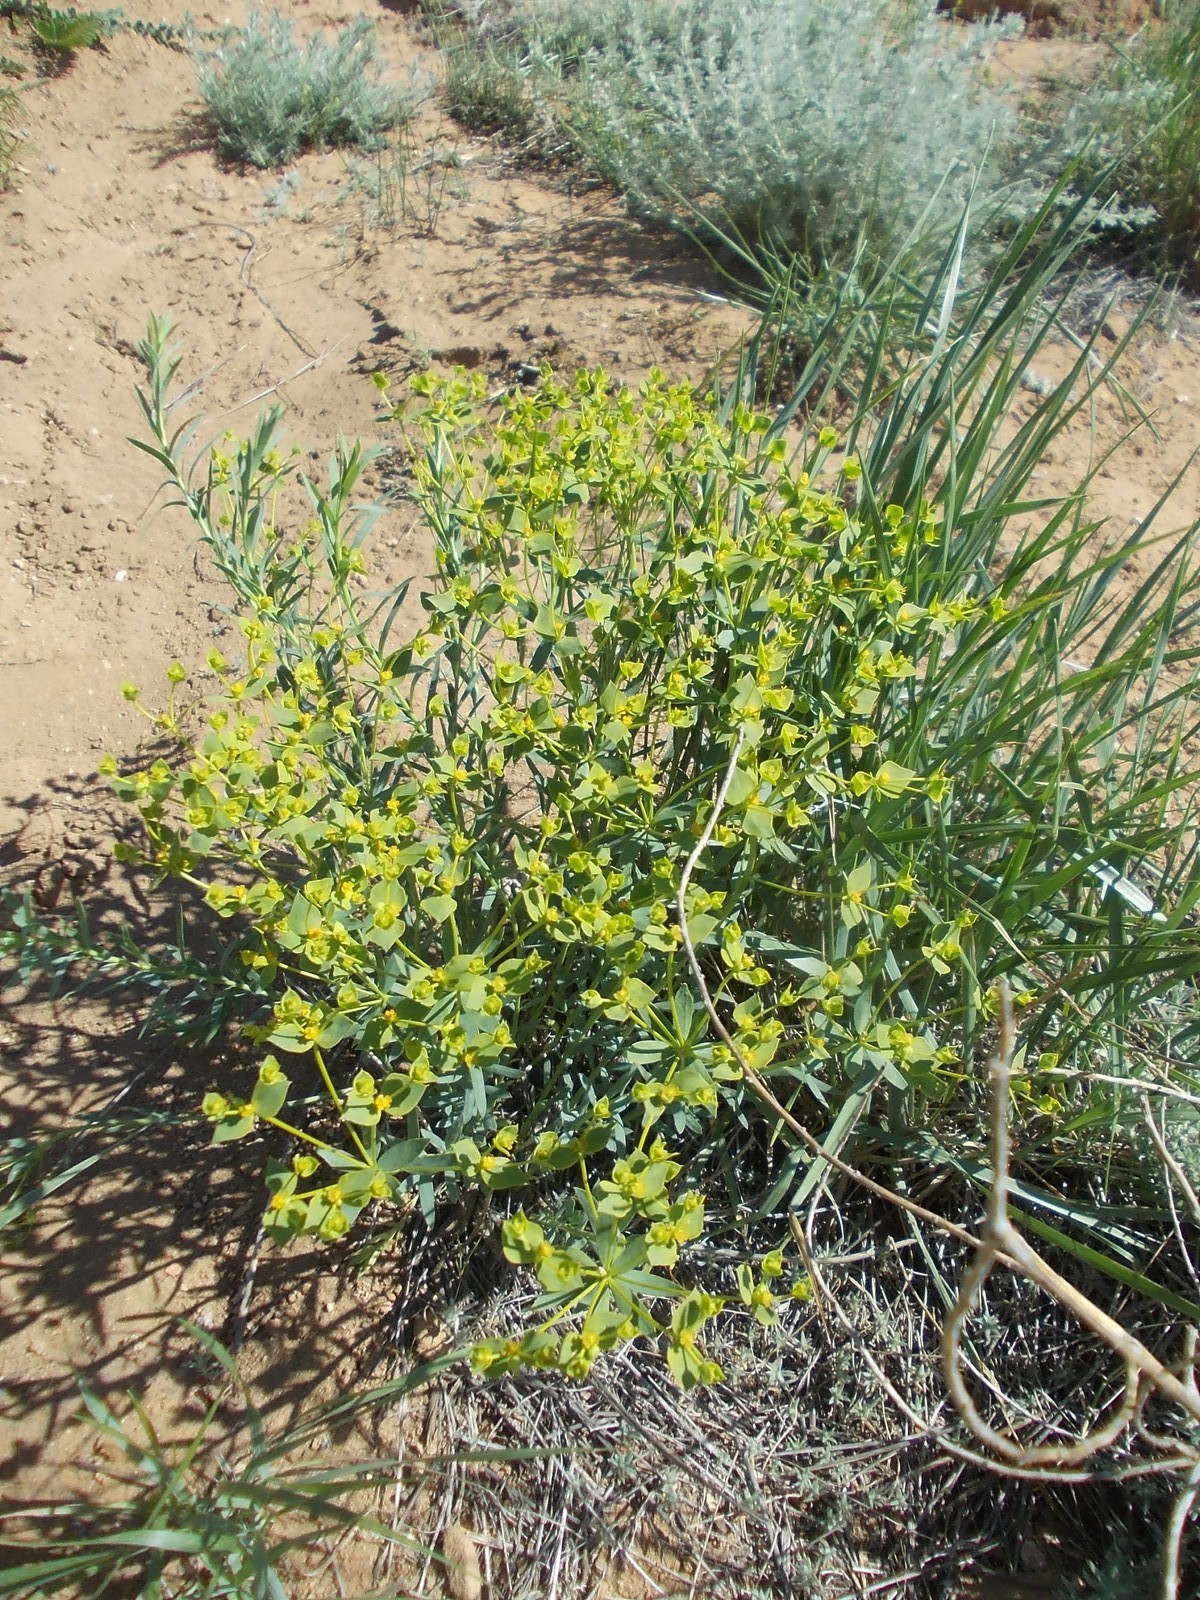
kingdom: Plantae
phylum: Tracheophyta
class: Magnoliopsida
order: Malpighiales
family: Euphorbiaceae
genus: Euphorbia
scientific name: Euphorbia seguieriana
